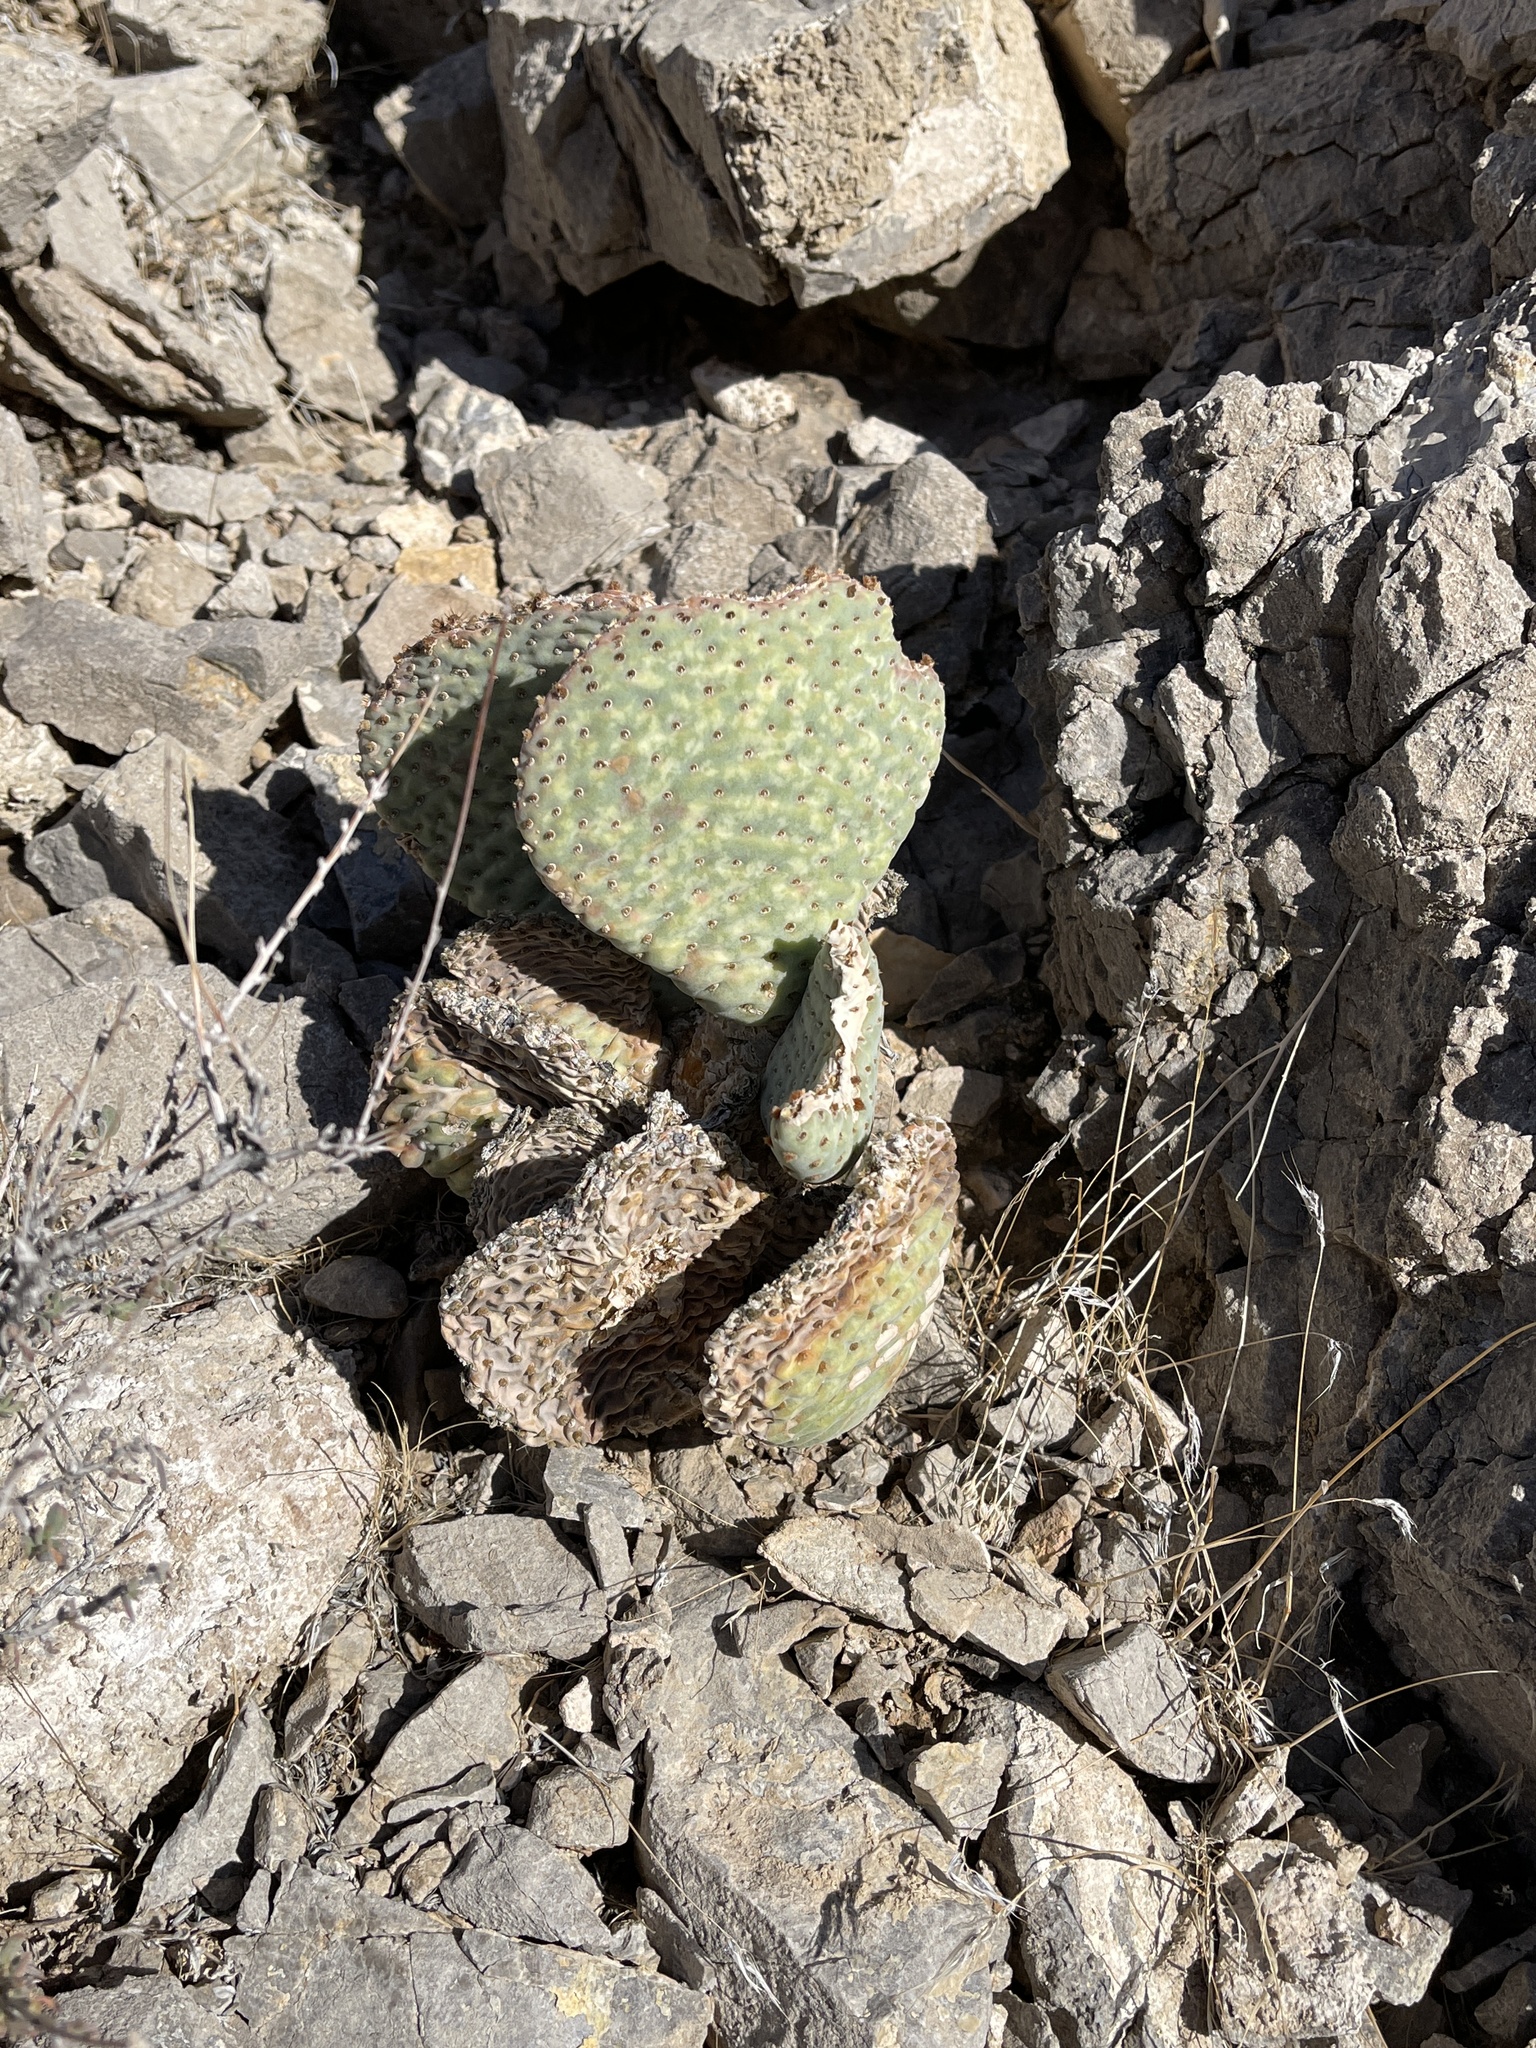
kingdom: Plantae
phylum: Tracheophyta
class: Magnoliopsida
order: Caryophyllales
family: Cactaceae
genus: Opuntia
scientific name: Opuntia basilaris
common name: Beavertail prickly-pear
